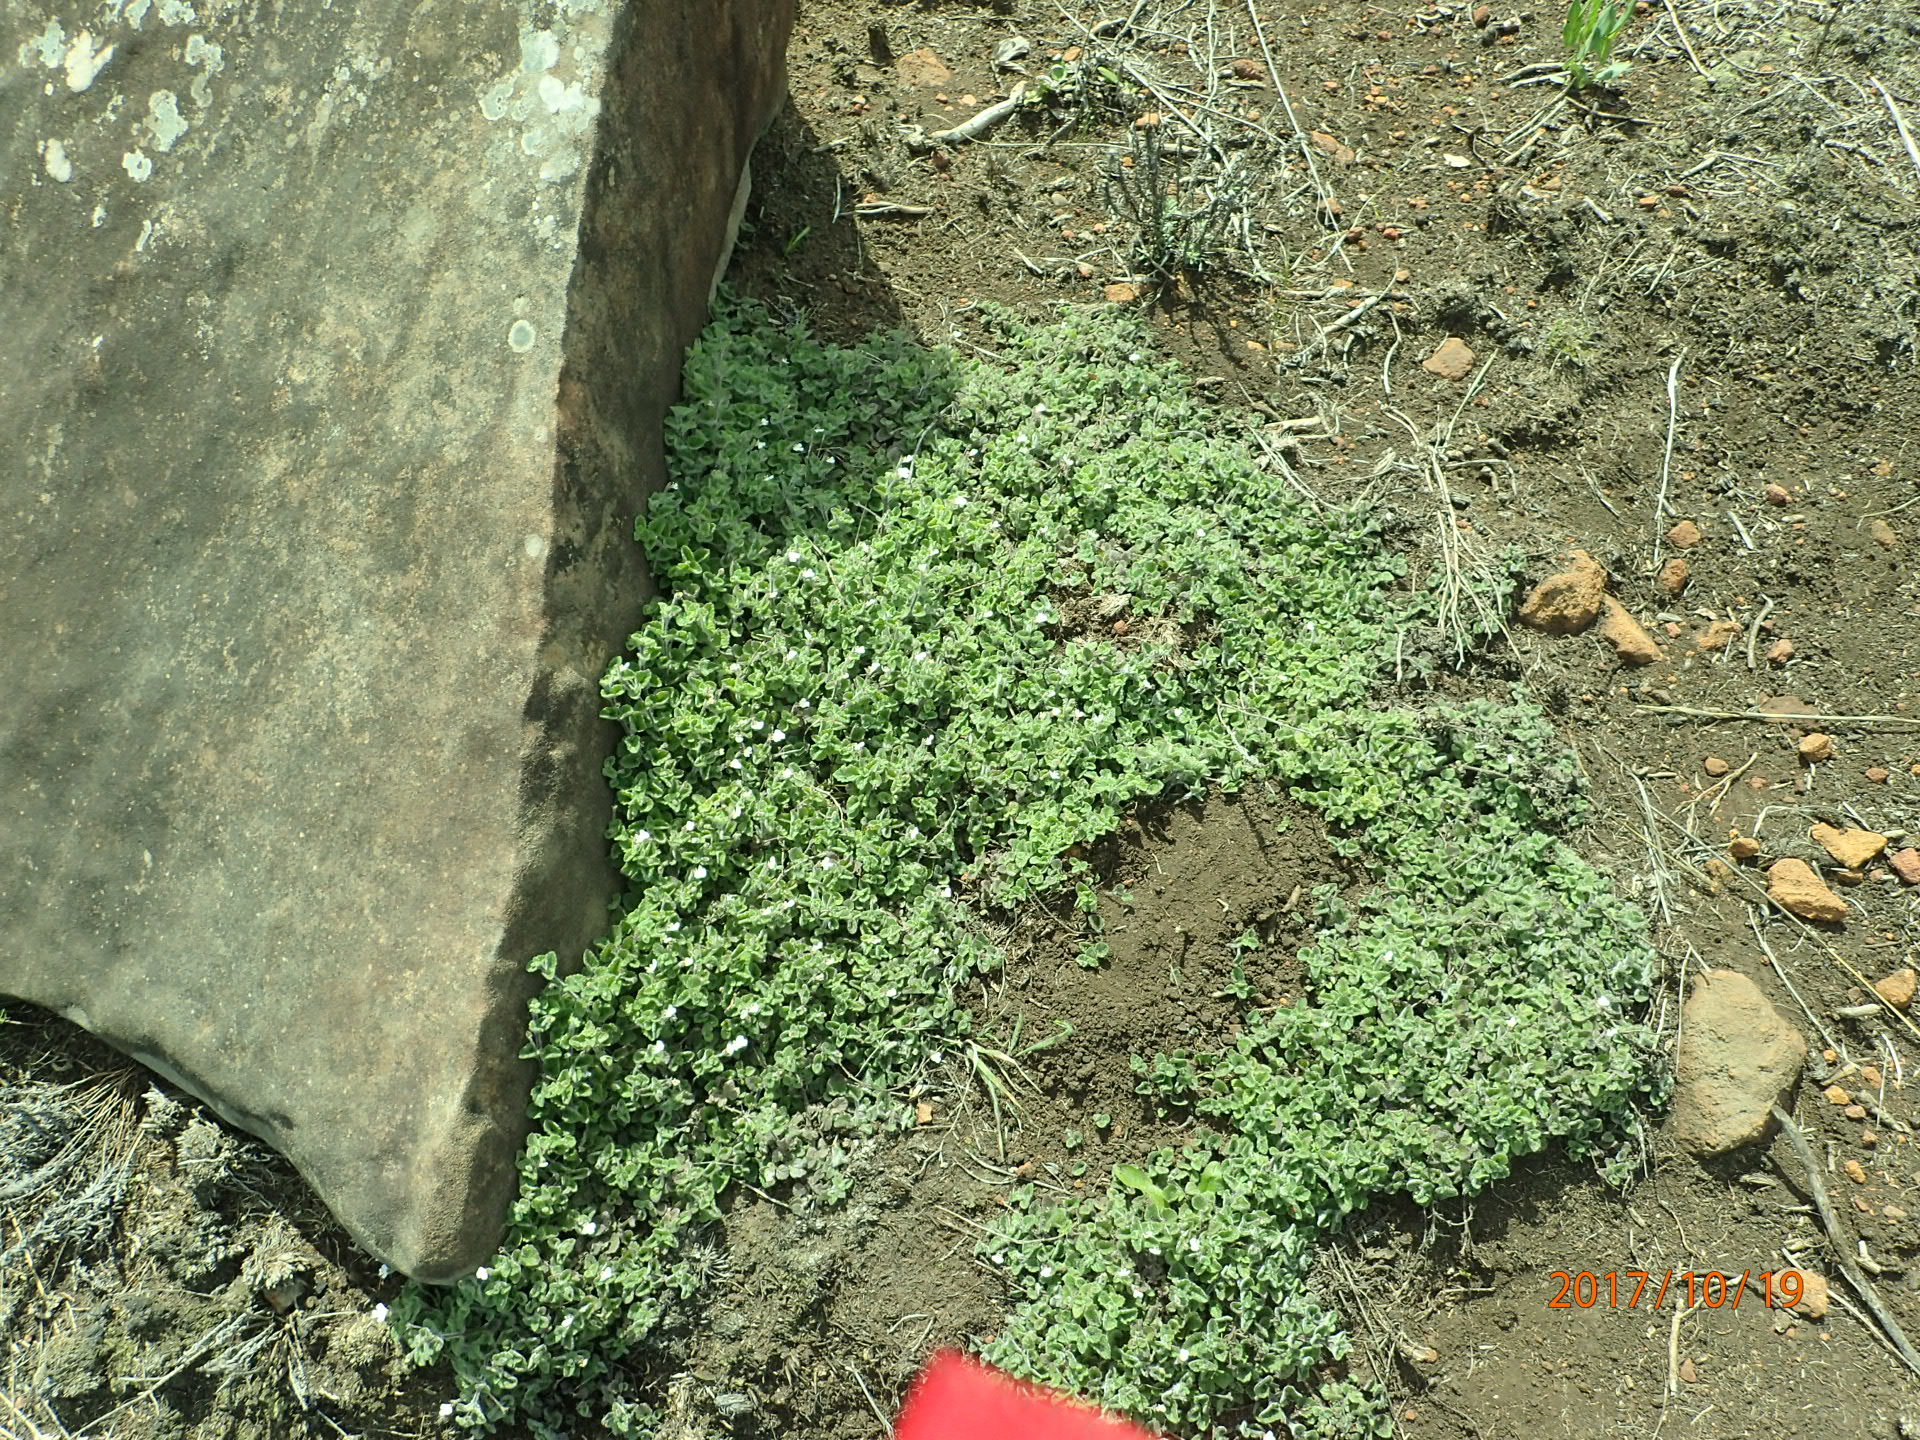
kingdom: Plantae
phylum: Tracheophyta
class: Magnoliopsida
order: Lamiales
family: Scrophulariaceae
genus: Diclis
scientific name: Diclis reptans
